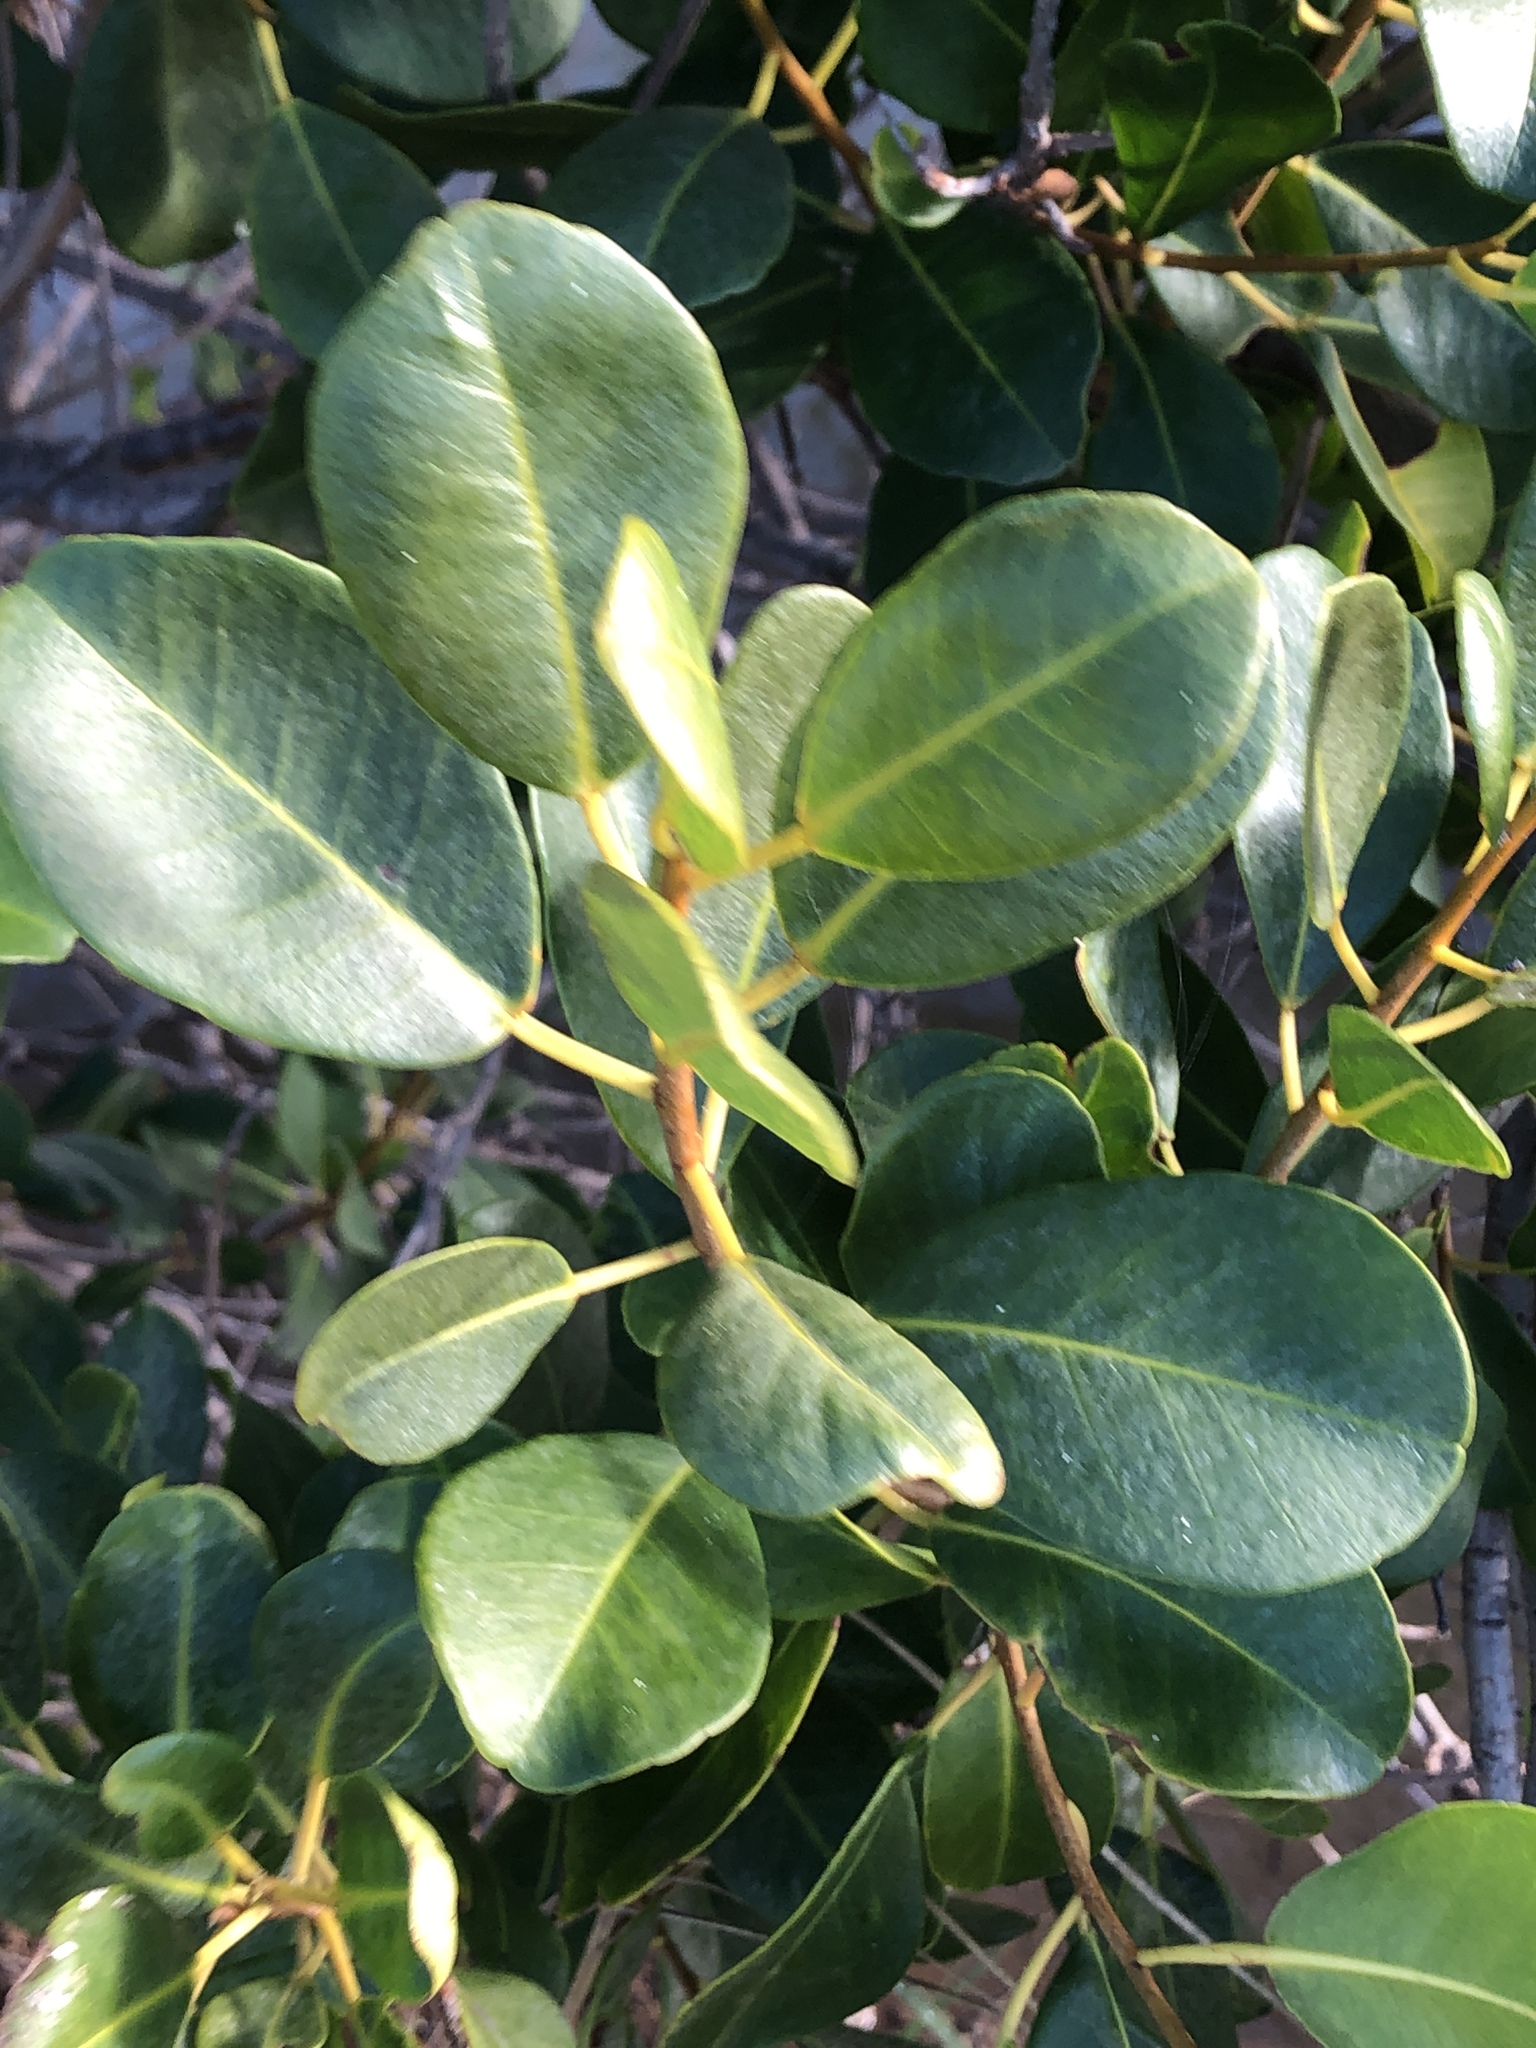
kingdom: Plantae
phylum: Tracheophyta
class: Magnoliopsida
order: Malpighiales
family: Euphorbiaceae
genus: Excoecaria
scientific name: Excoecaria agallocha
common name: River poisontree
